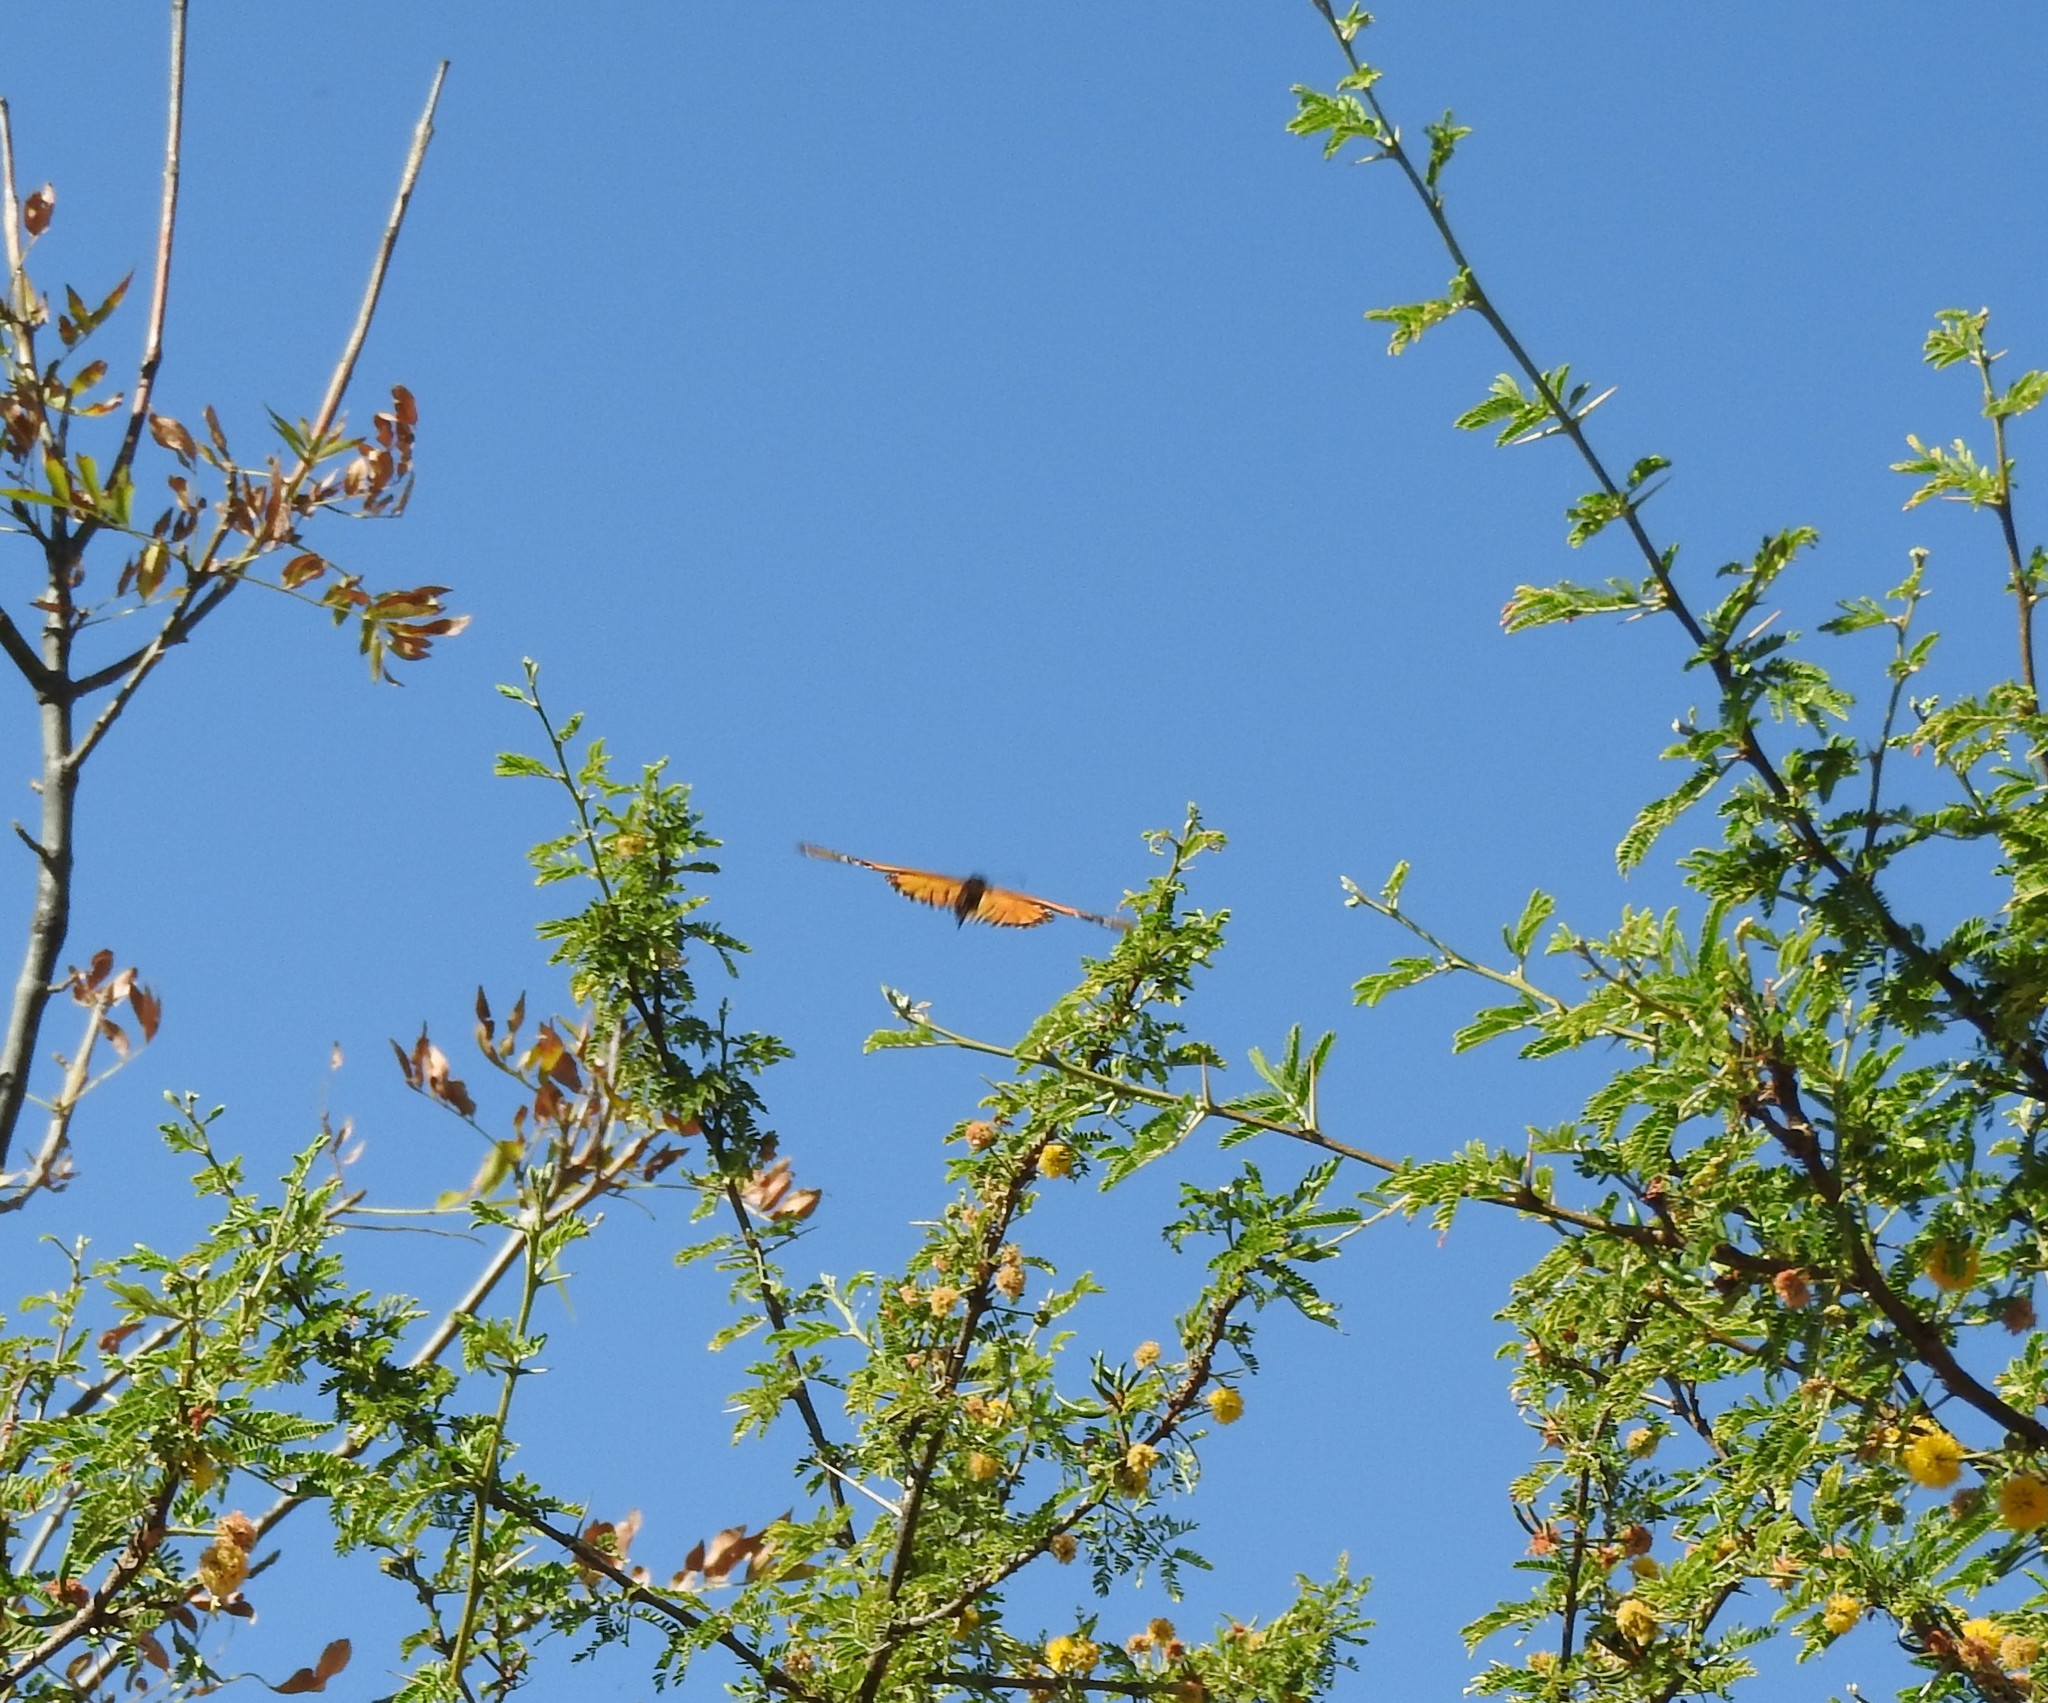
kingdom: Animalia
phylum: Arthropoda
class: Insecta
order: Lepidoptera
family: Nymphalidae
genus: Danaus
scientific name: Danaus plexippus
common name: Monarch
